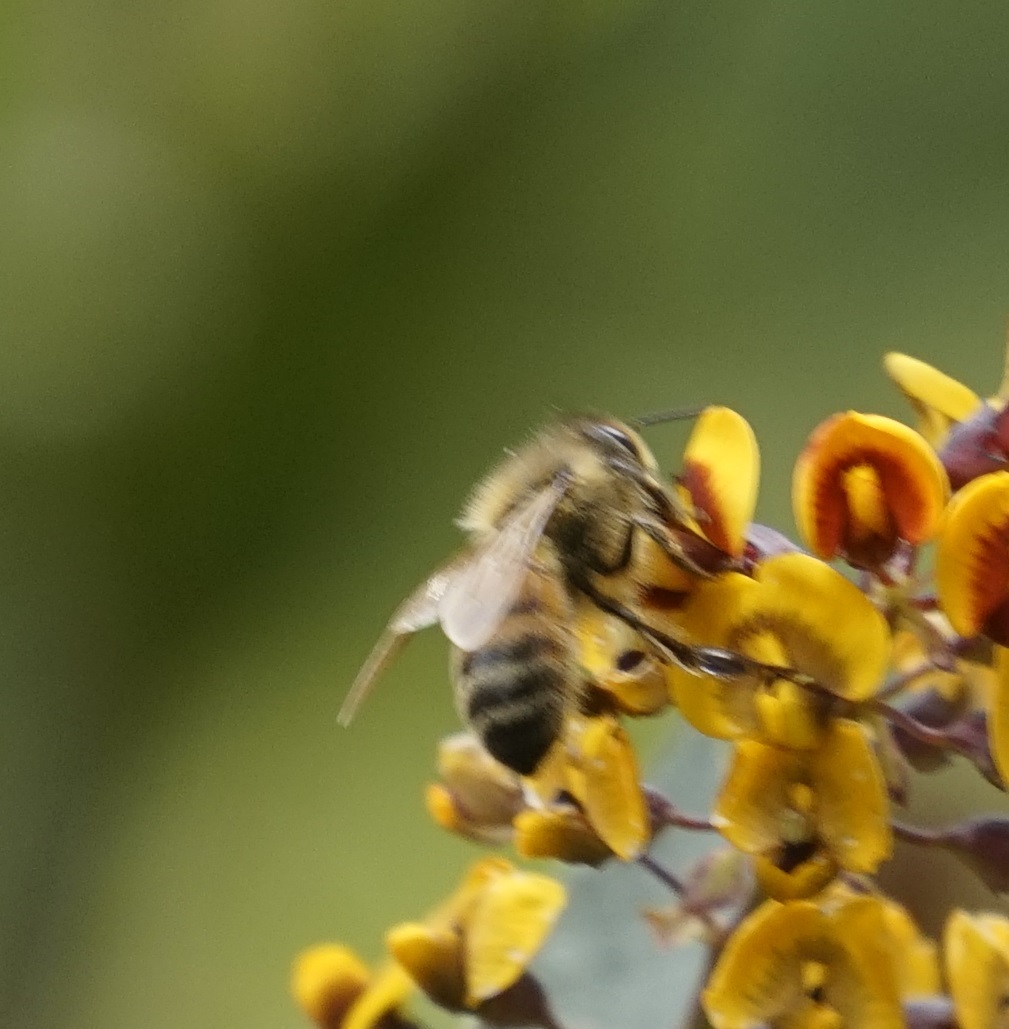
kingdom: Animalia
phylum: Arthropoda
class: Insecta
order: Hymenoptera
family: Apidae
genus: Apis
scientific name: Apis mellifera
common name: Honey bee
